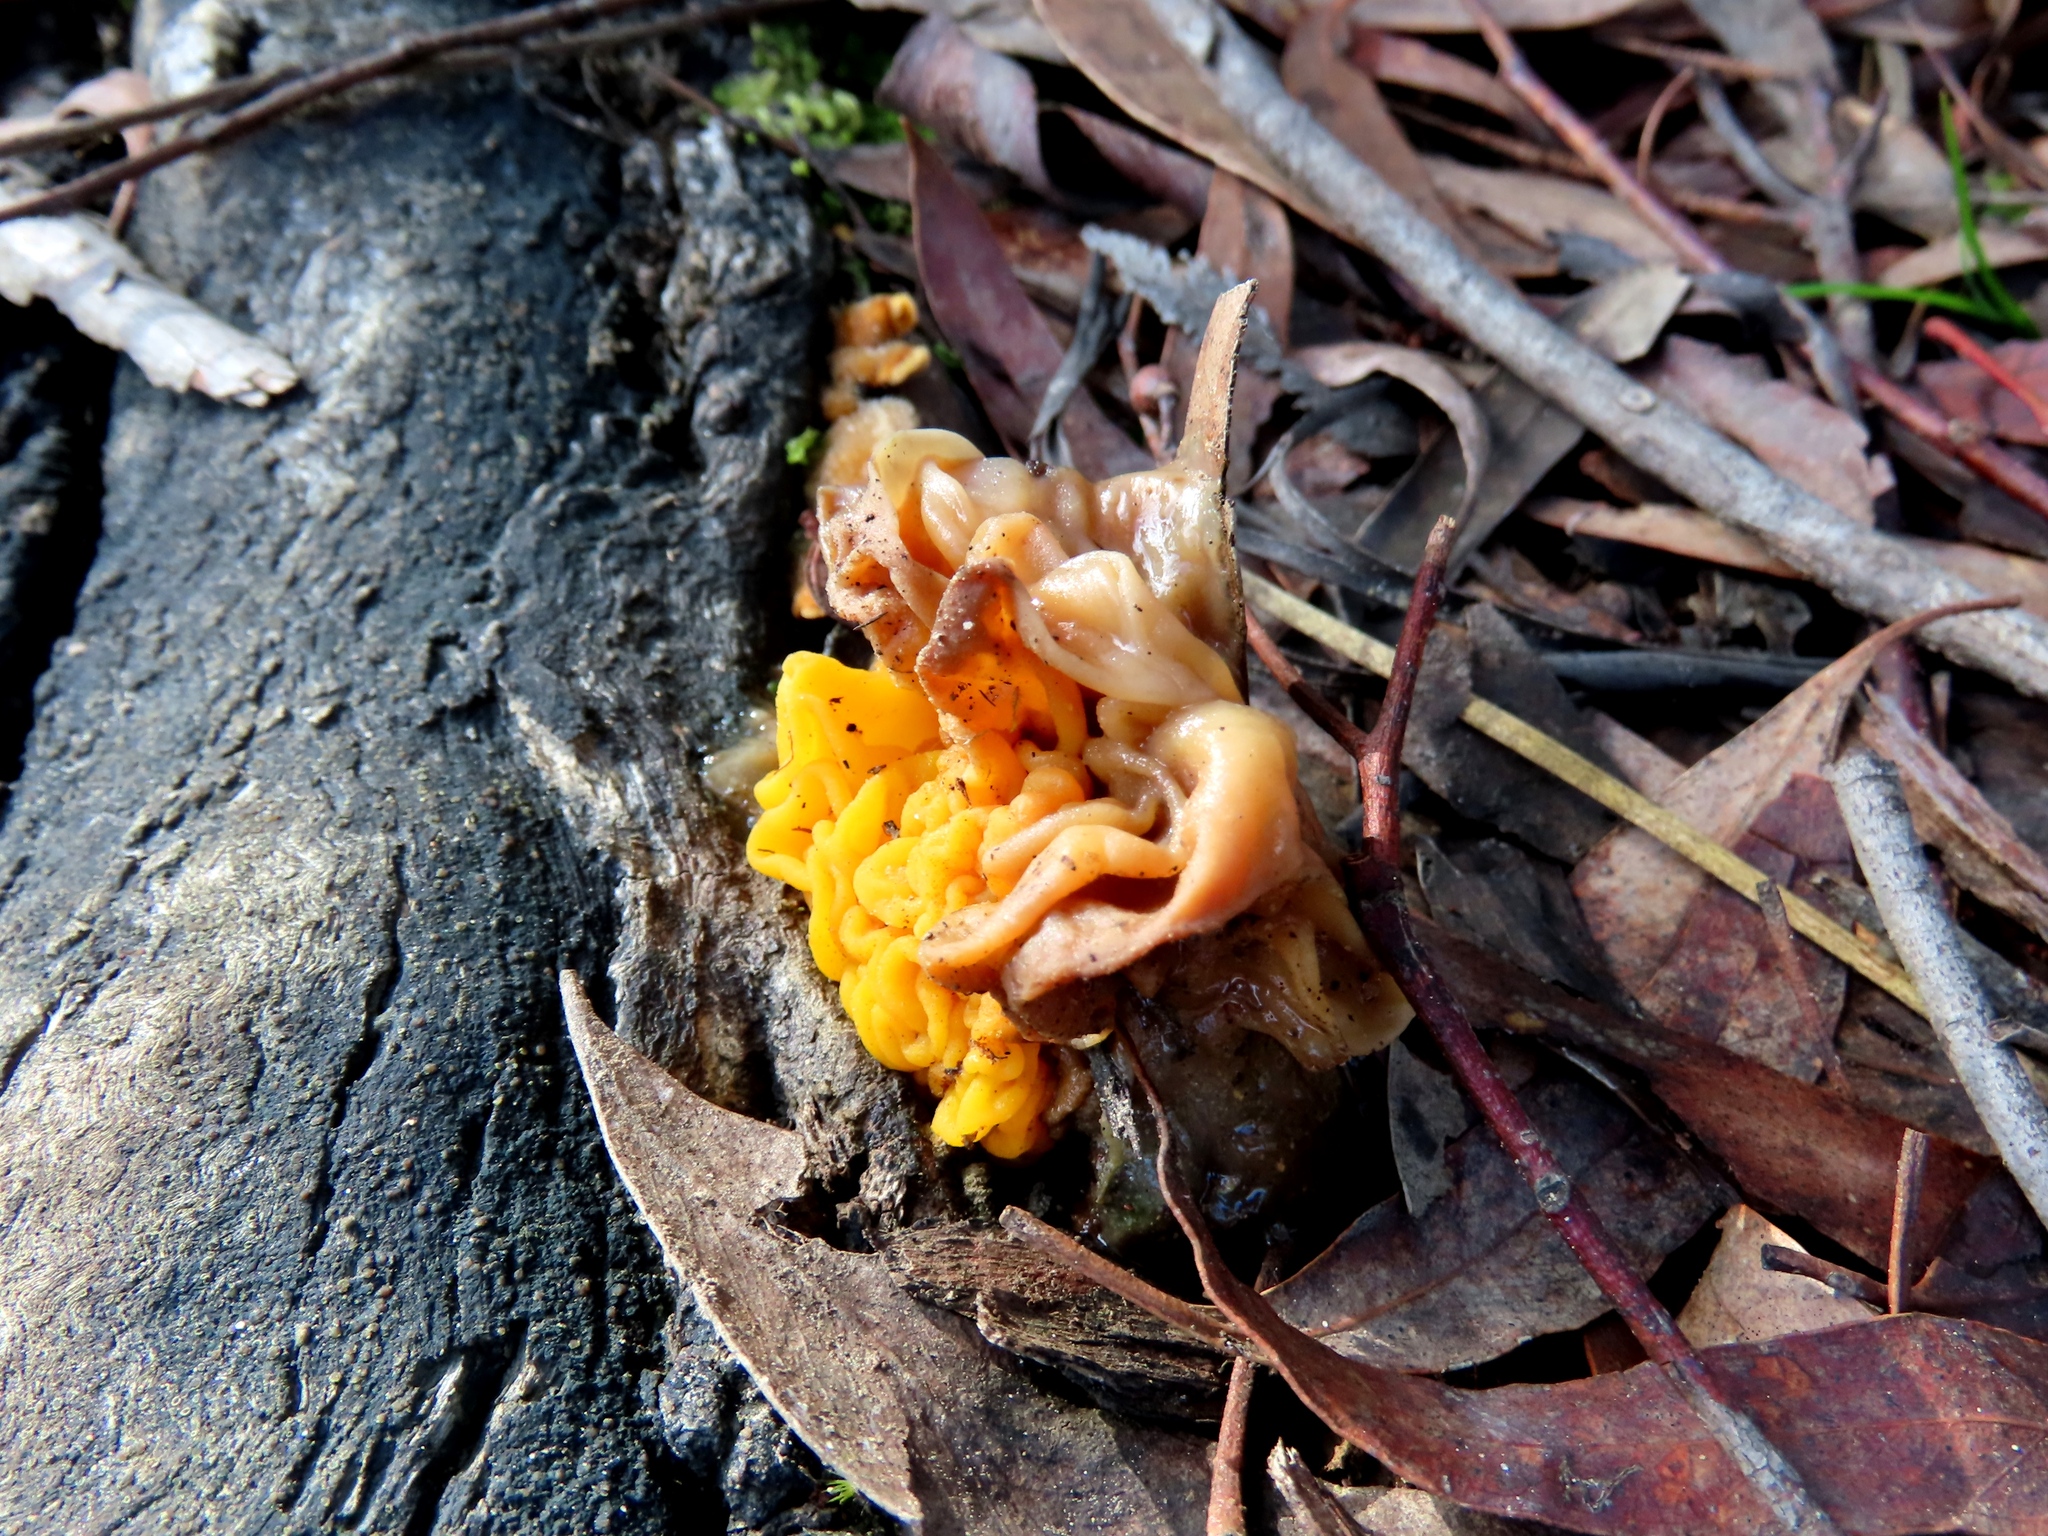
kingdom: Fungi
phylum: Basidiomycota
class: Tremellomycetes
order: Tremellales
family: Tremellaceae
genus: Tremella
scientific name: Tremella mesenterica
